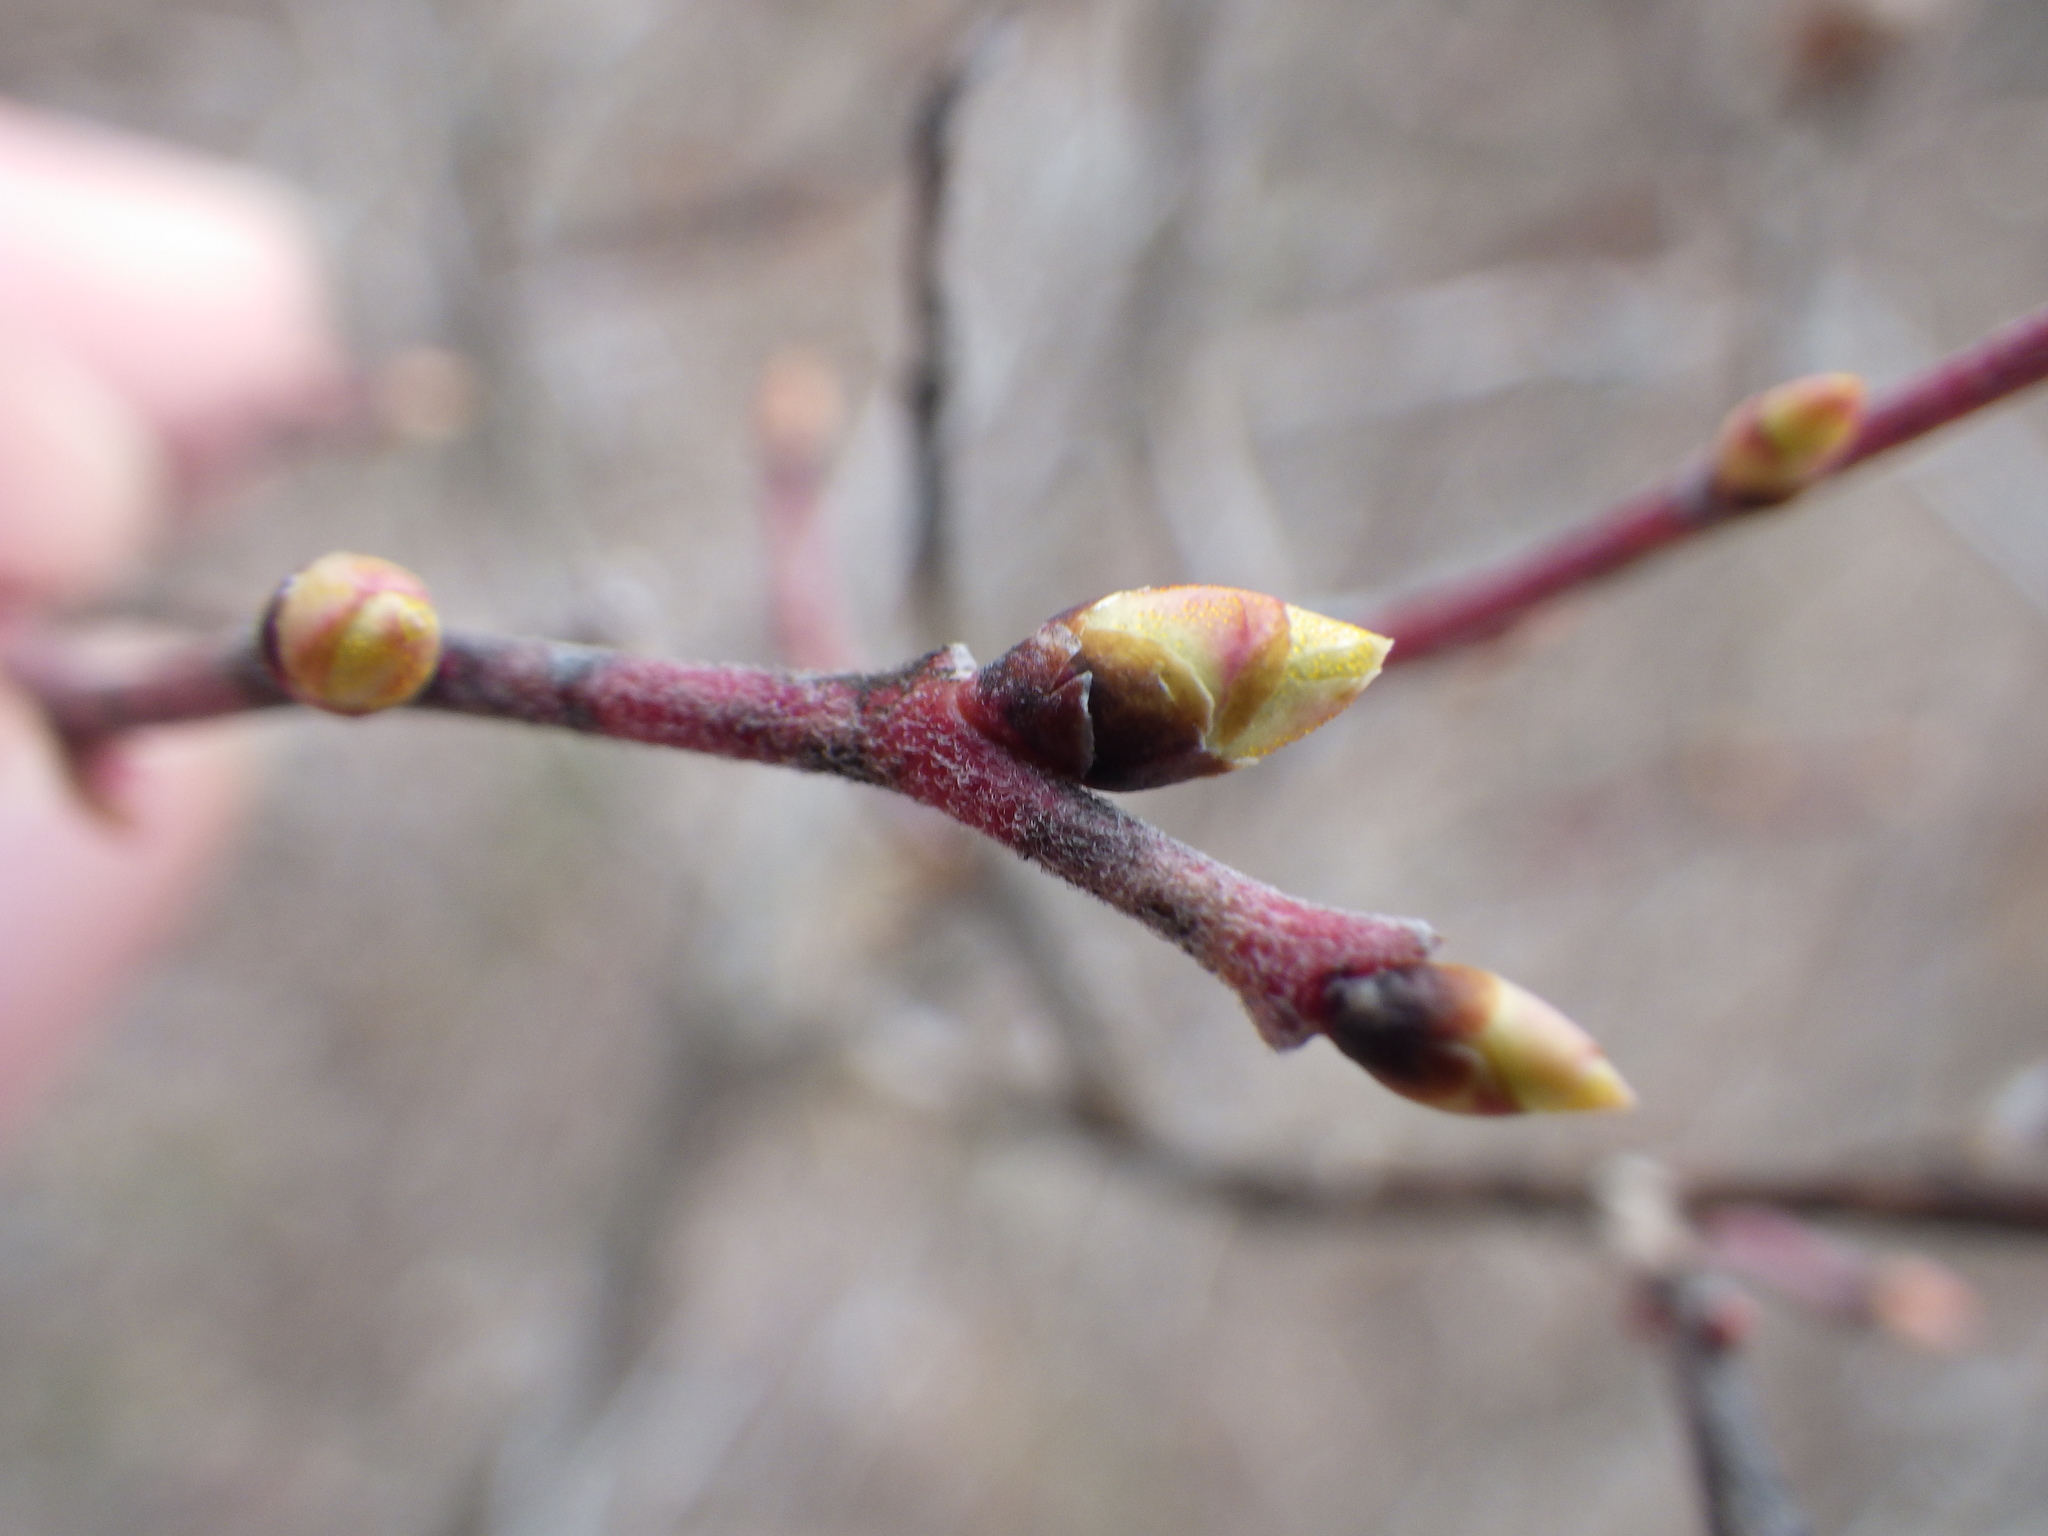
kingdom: Plantae
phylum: Tracheophyta
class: Magnoliopsida
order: Ericales
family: Ericaceae
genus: Gaylussacia
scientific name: Gaylussacia baccata
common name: Black huckleberry
